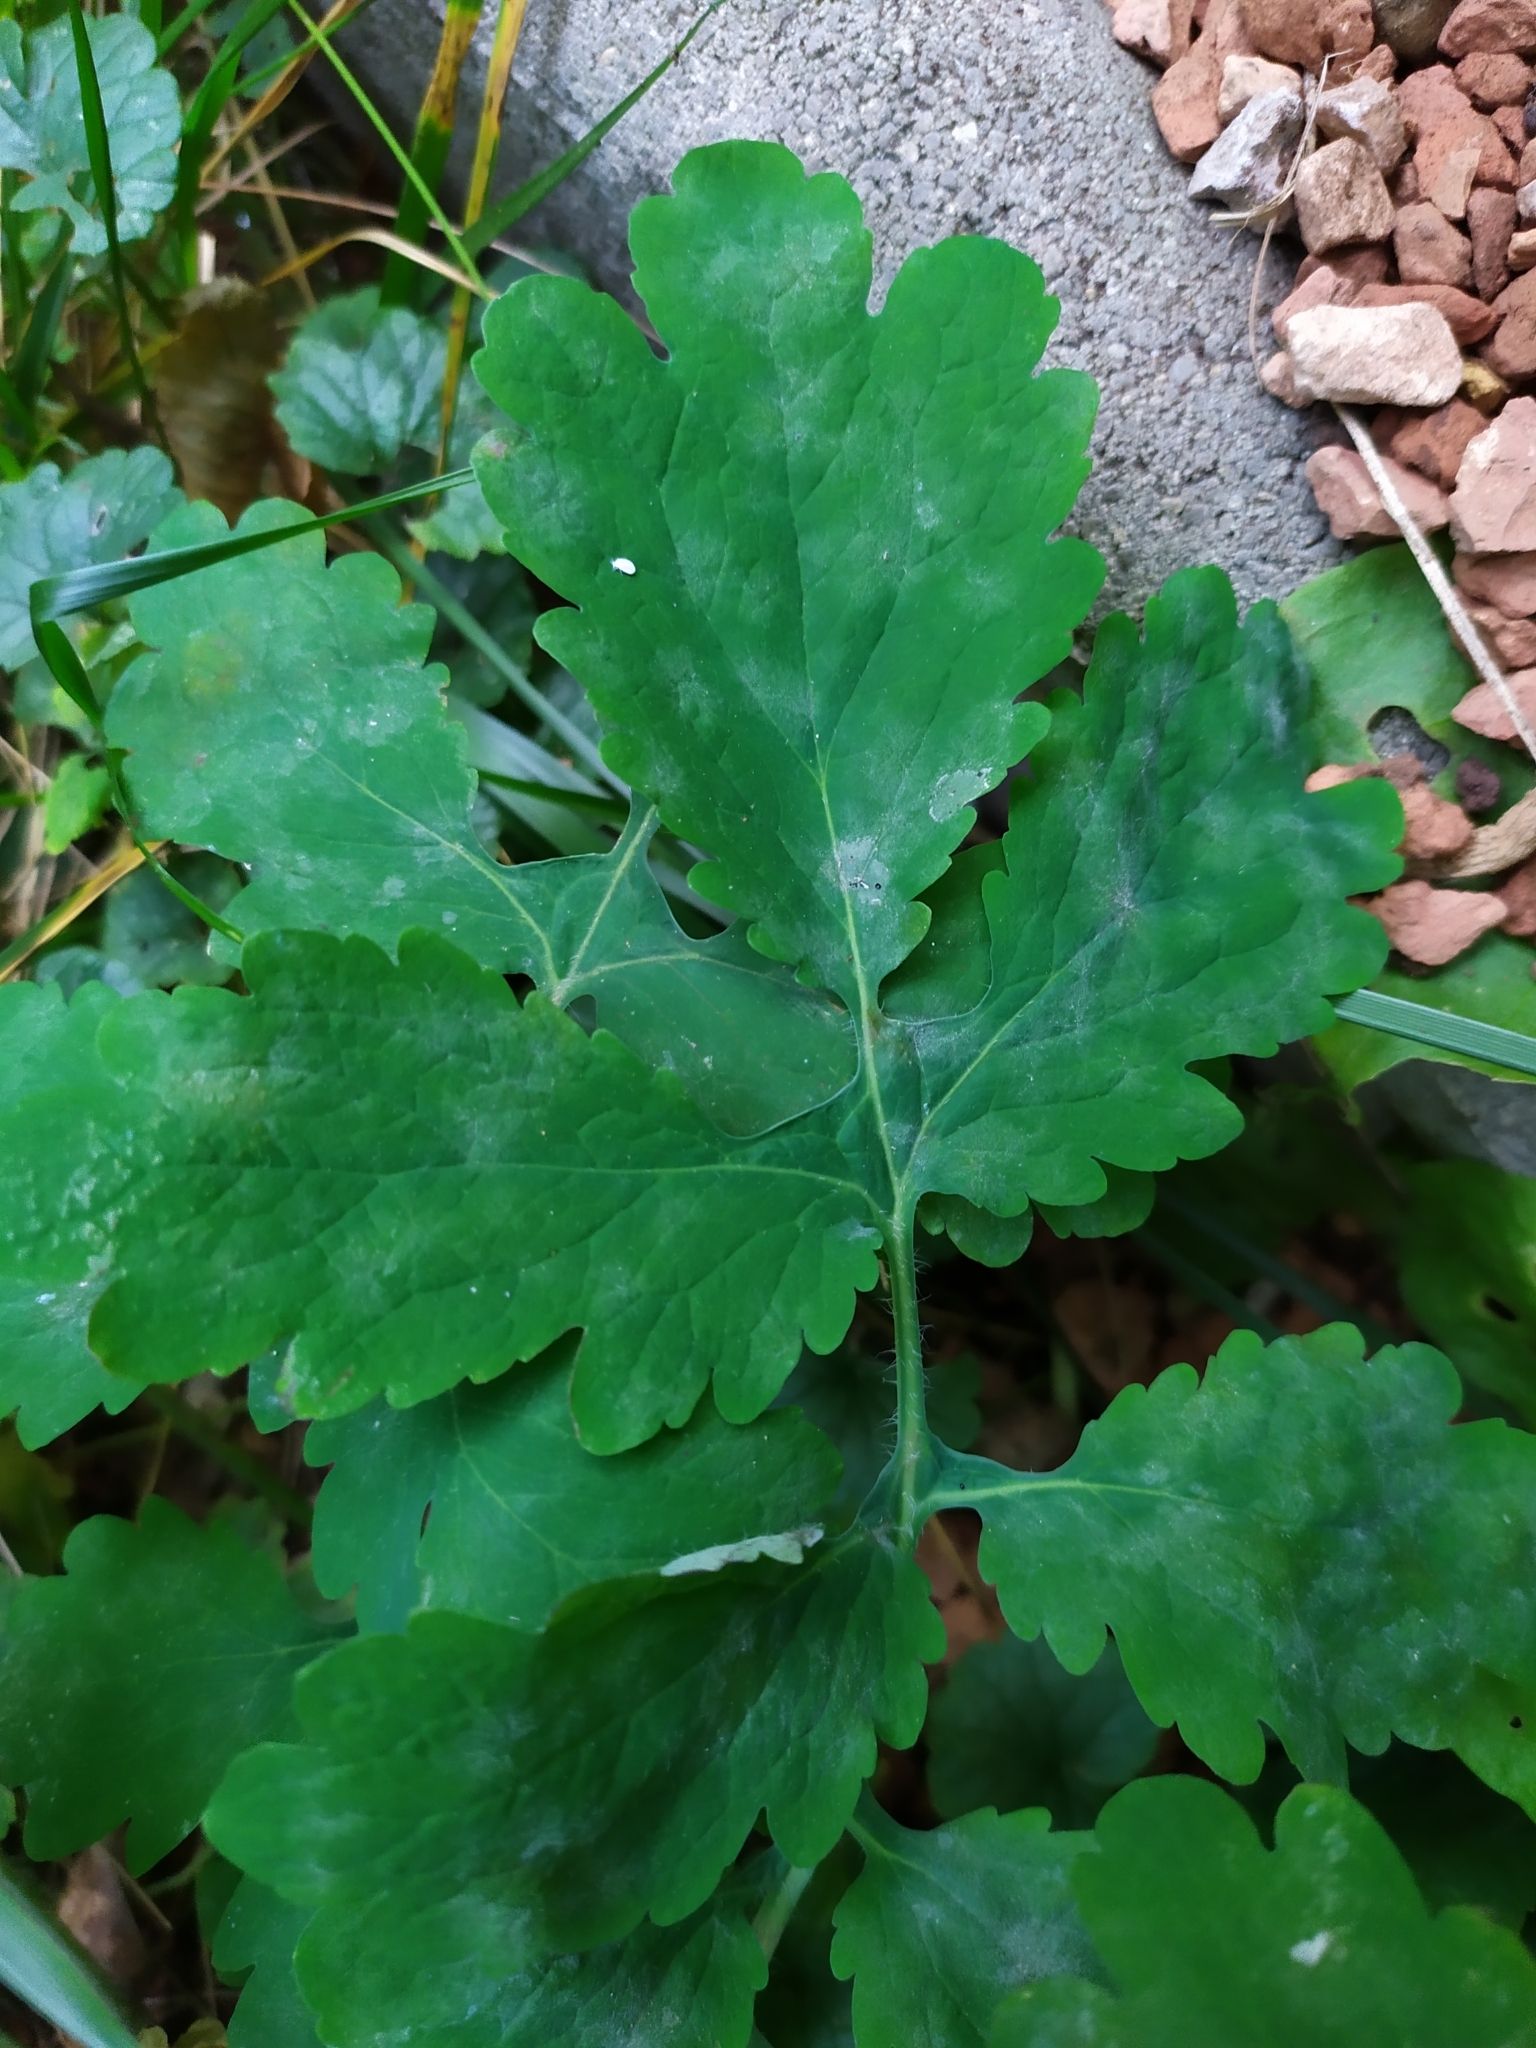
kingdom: Fungi
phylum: Ascomycota
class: Leotiomycetes
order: Helotiales
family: Erysiphaceae
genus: Erysiphe
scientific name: Erysiphe macleayae
